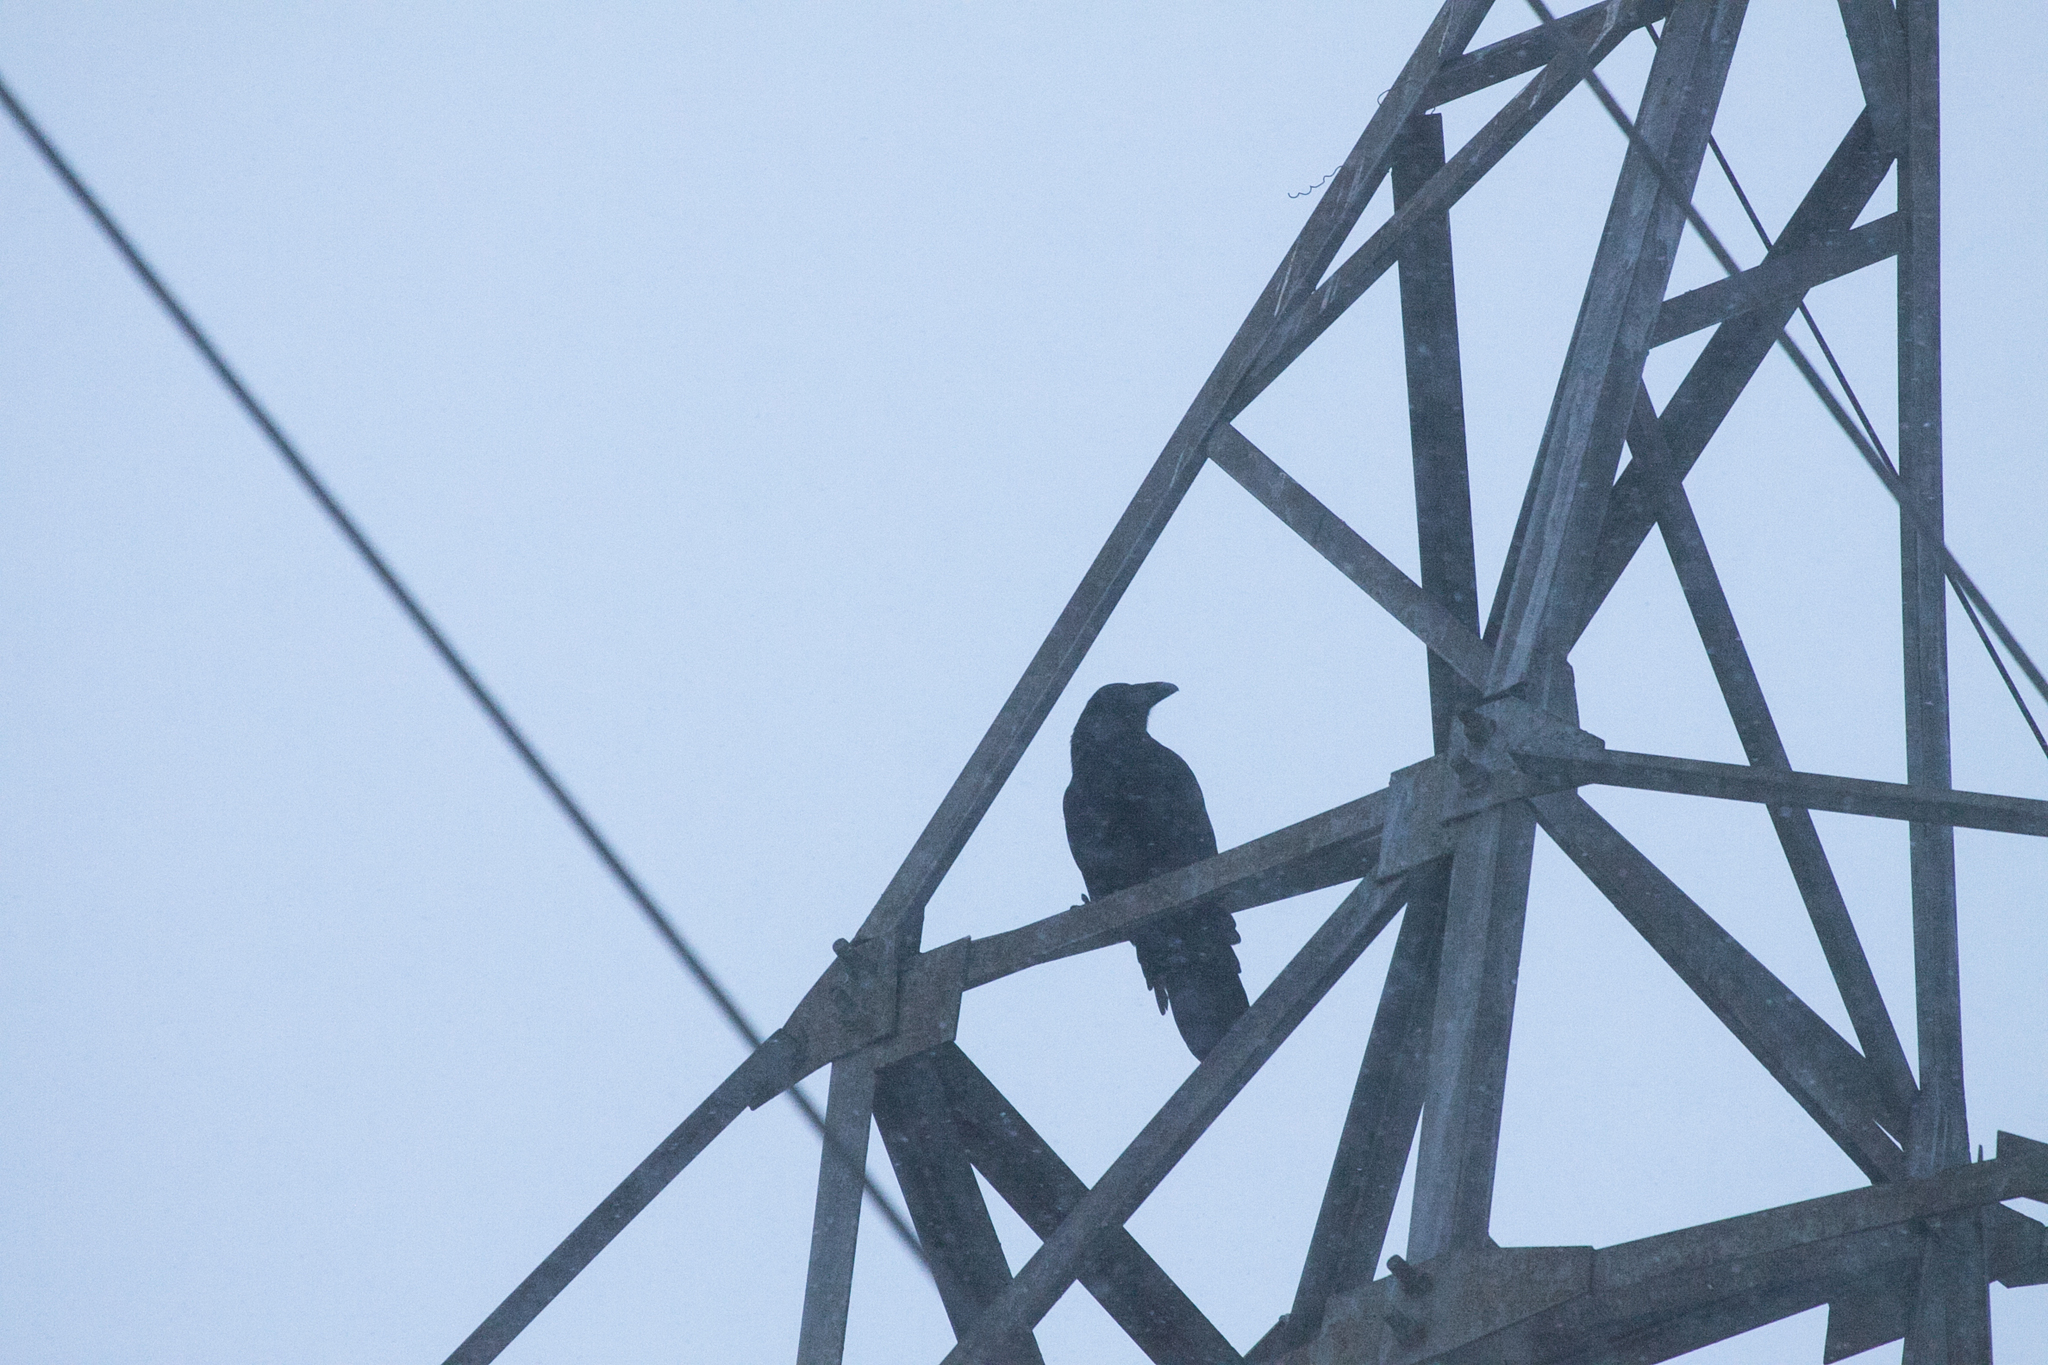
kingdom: Animalia
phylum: Chordata
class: Aves
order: Passeriformes
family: Corvidae
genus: Corvus
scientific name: Corvus corax
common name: Common raven
